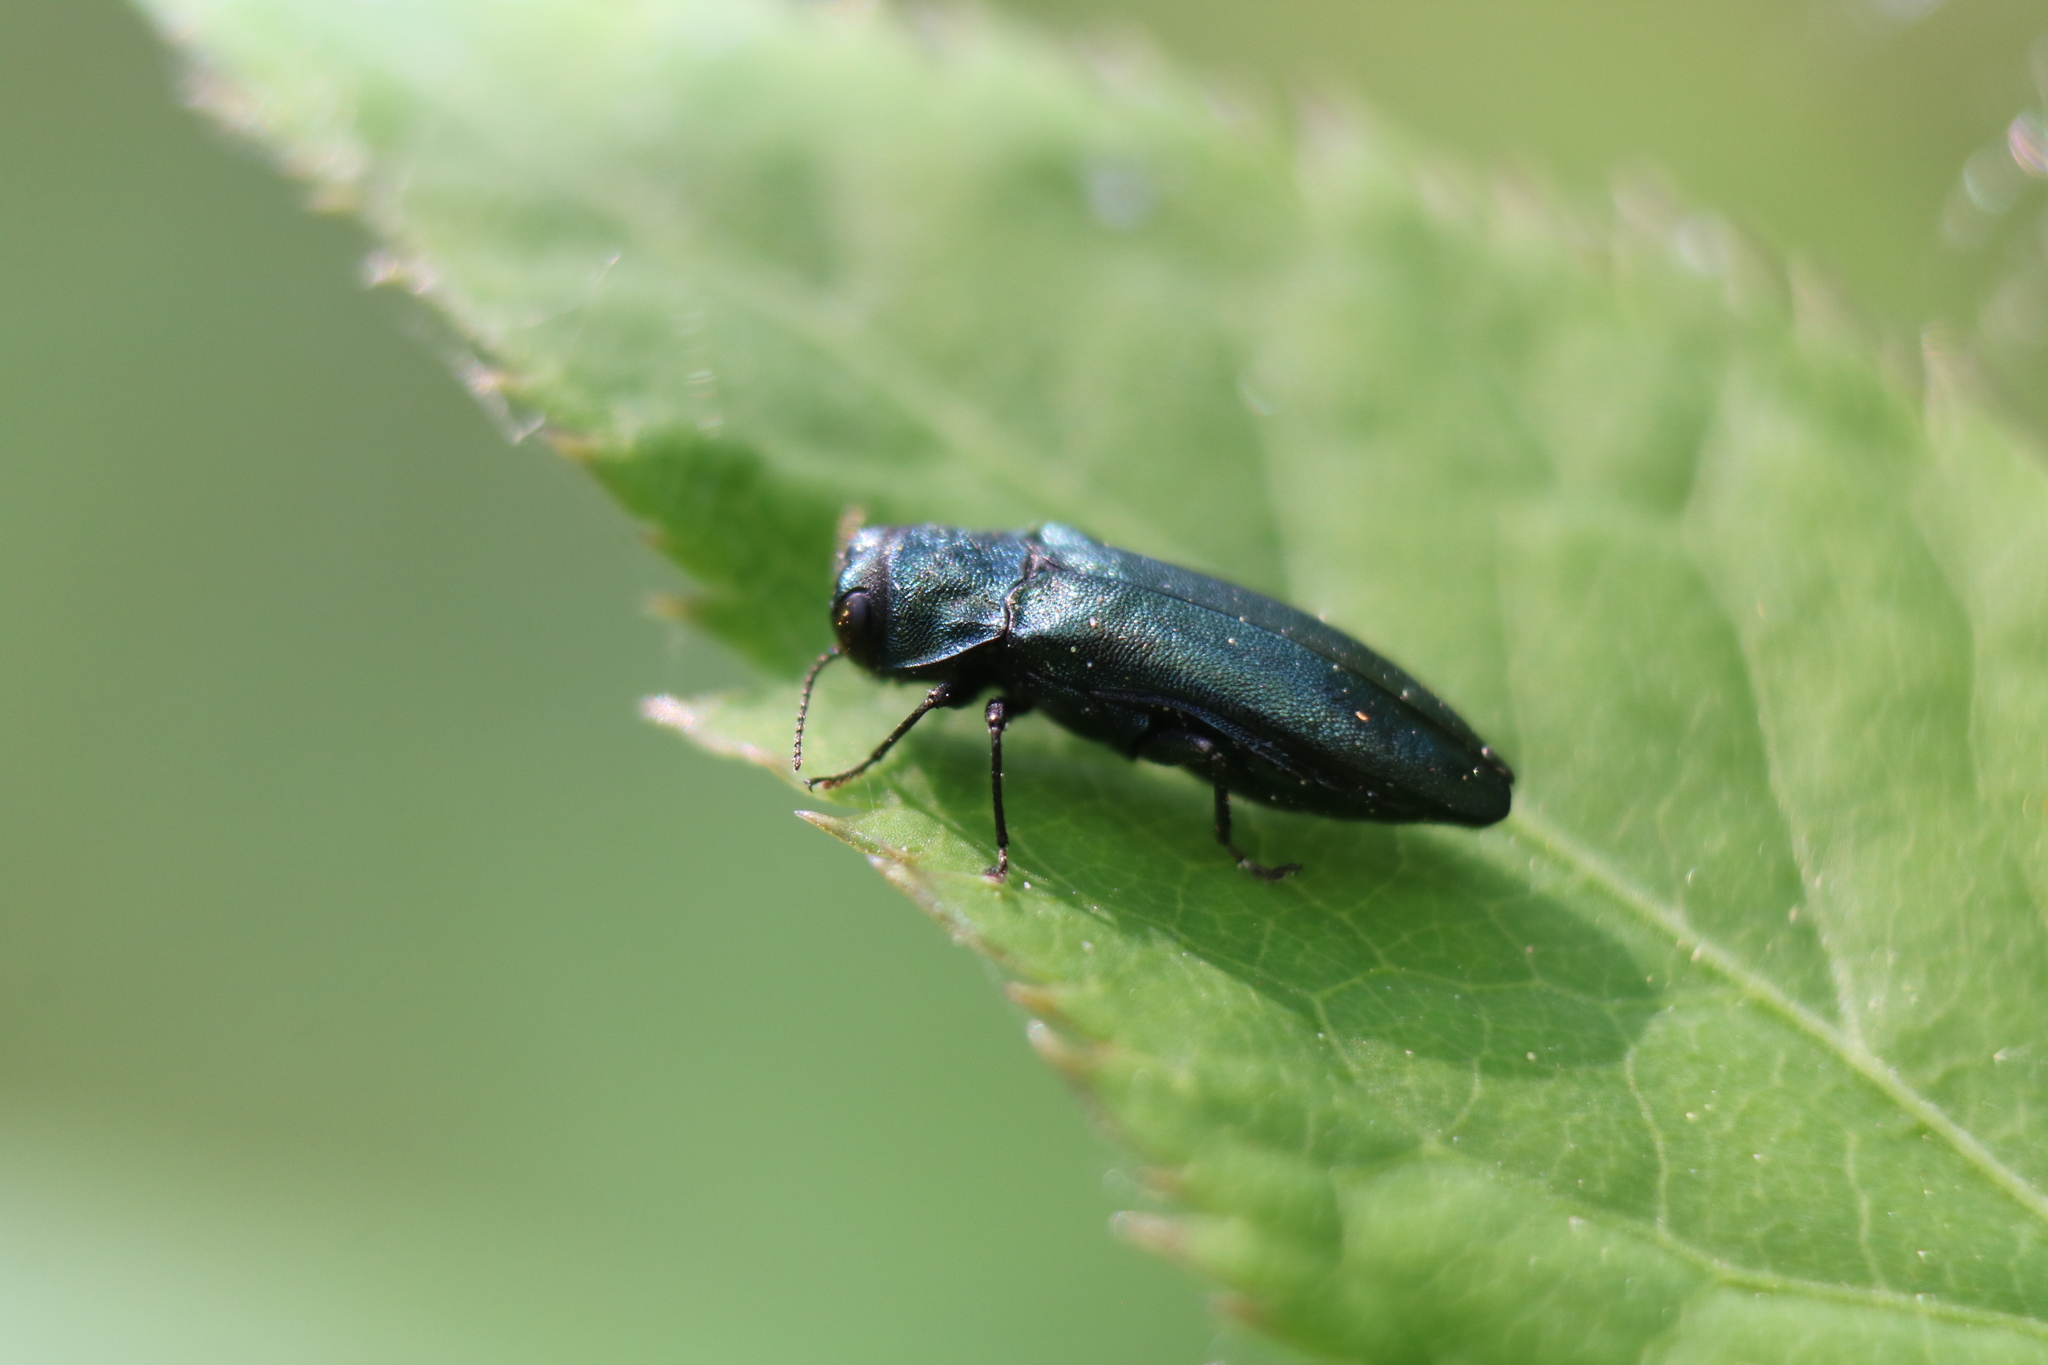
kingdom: Animalia
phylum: Arthropoda
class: Insecta
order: Coleoptera
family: Buprestidae
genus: Agrilus
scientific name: Agrilus cyanescens
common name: Bluish borer beetle
